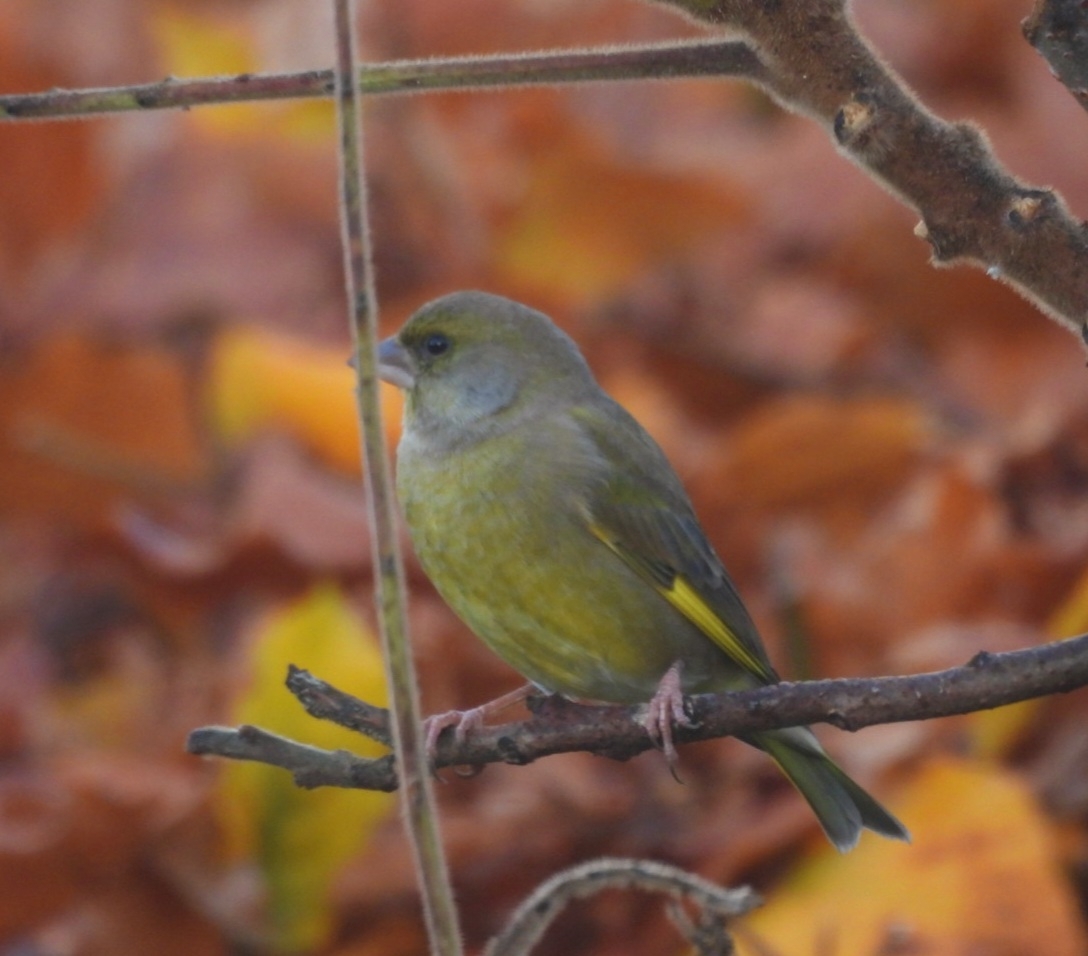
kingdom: Plantae
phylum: Tracheophyta
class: Liliopsida
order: Poales
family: Poaceae
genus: Chloris
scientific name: Chloris chloris
